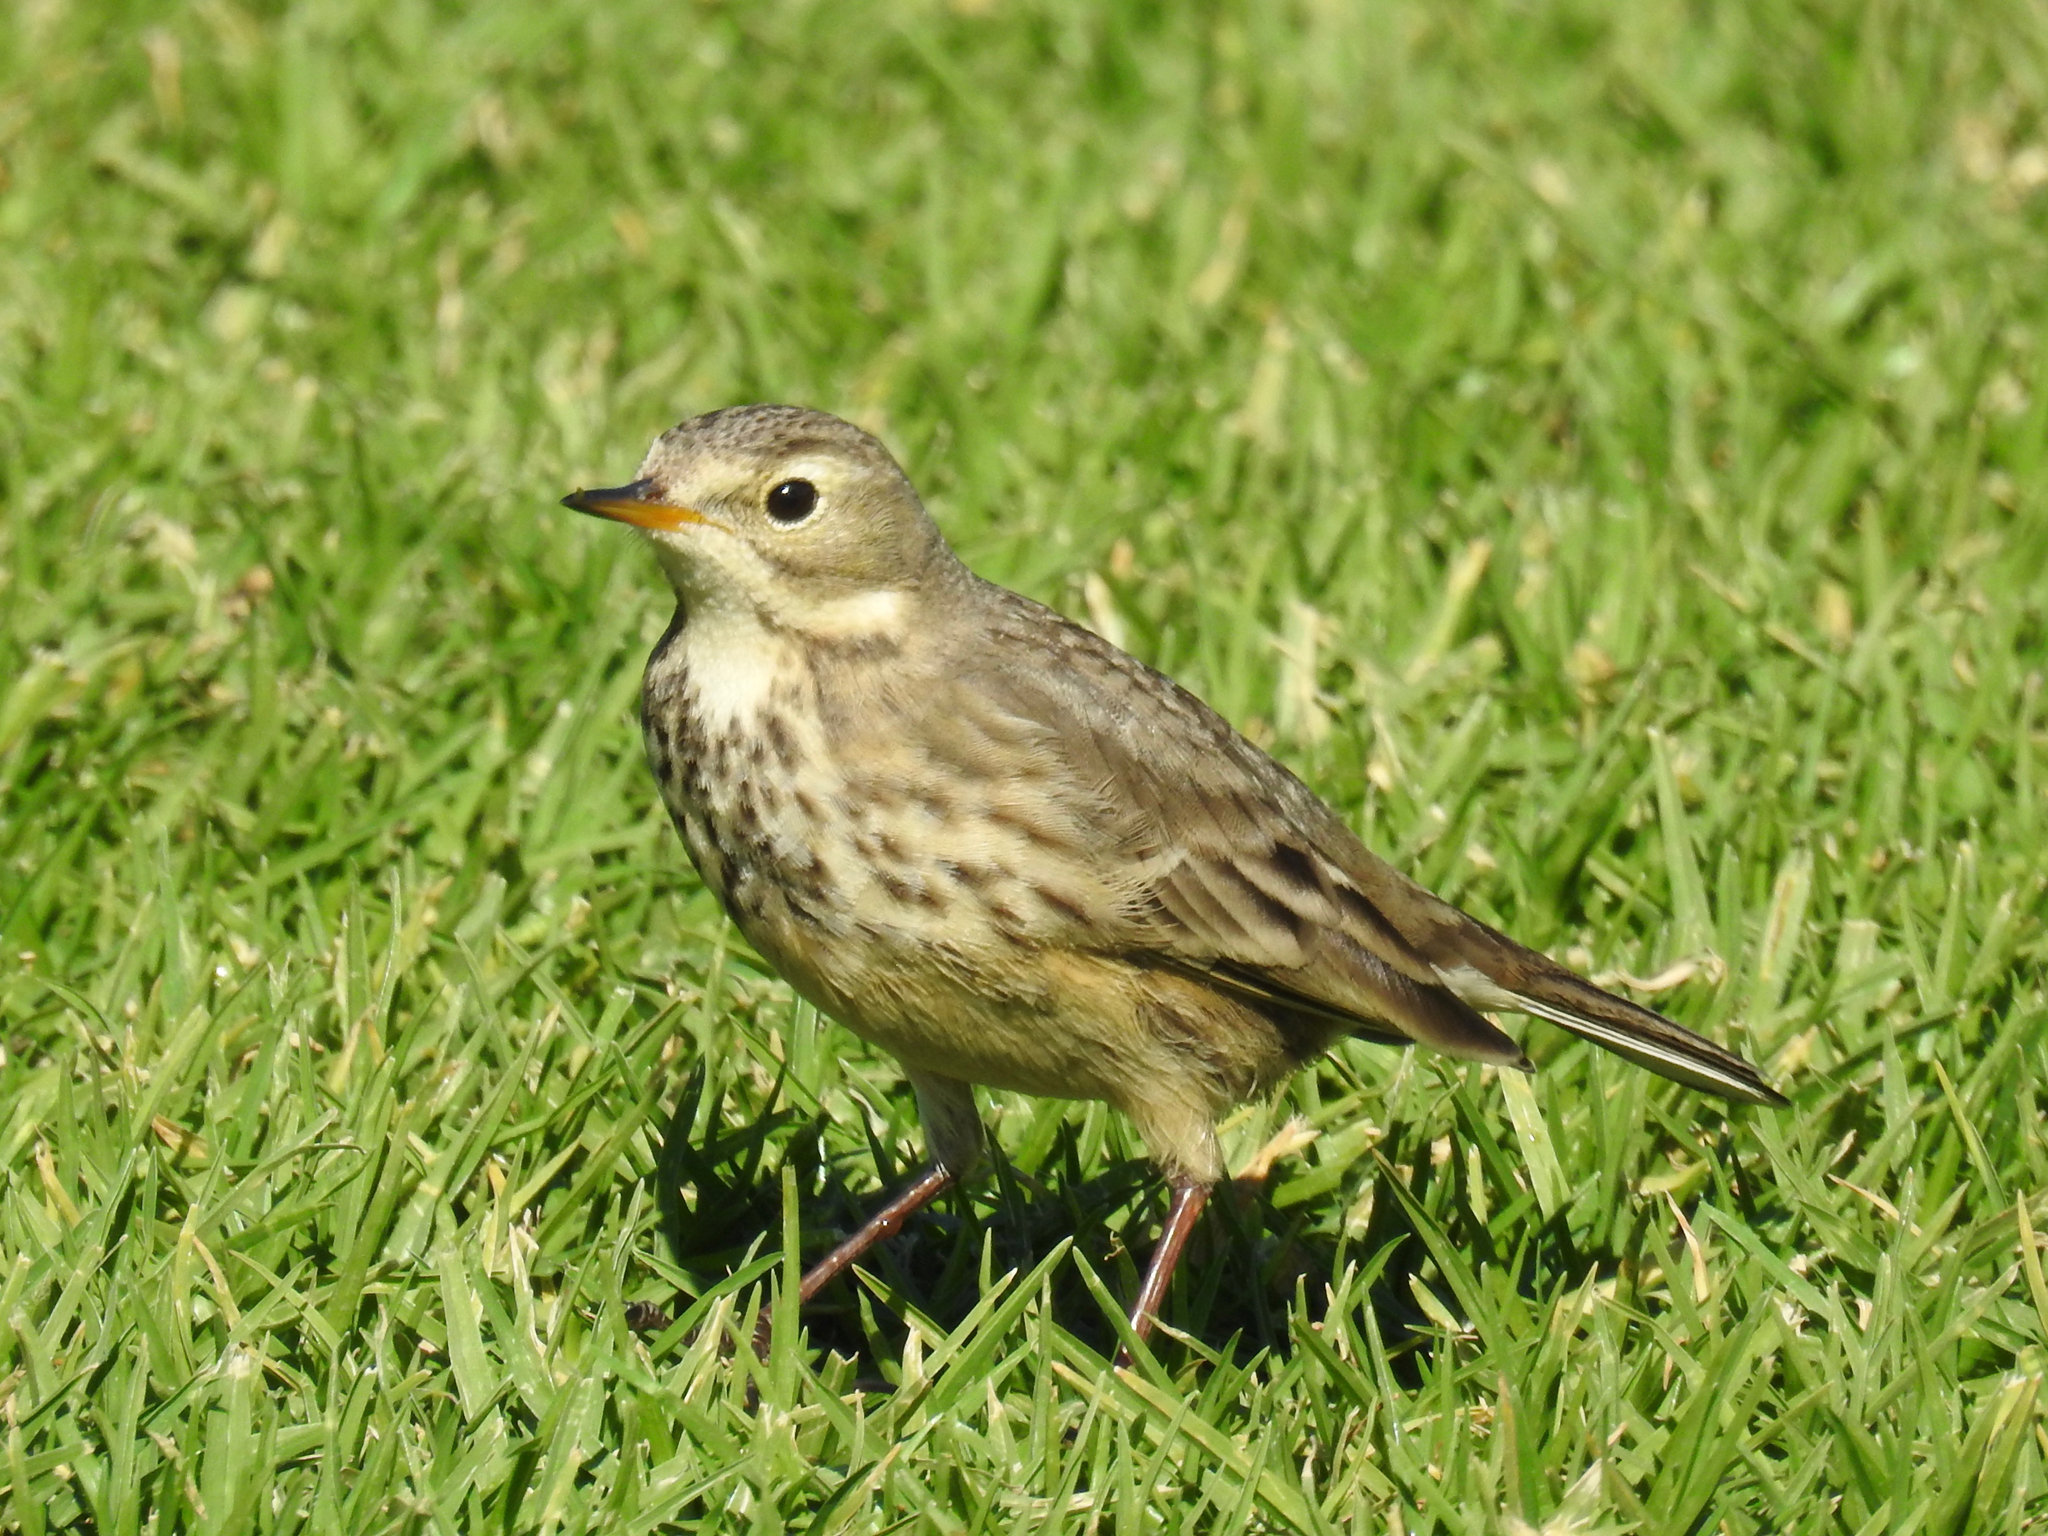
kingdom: Animalia
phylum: Chordata
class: Aves
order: Passeriformes
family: Motacillidae
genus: Anthus
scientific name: Anthus rubescens
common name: Buff-bellied pipit
